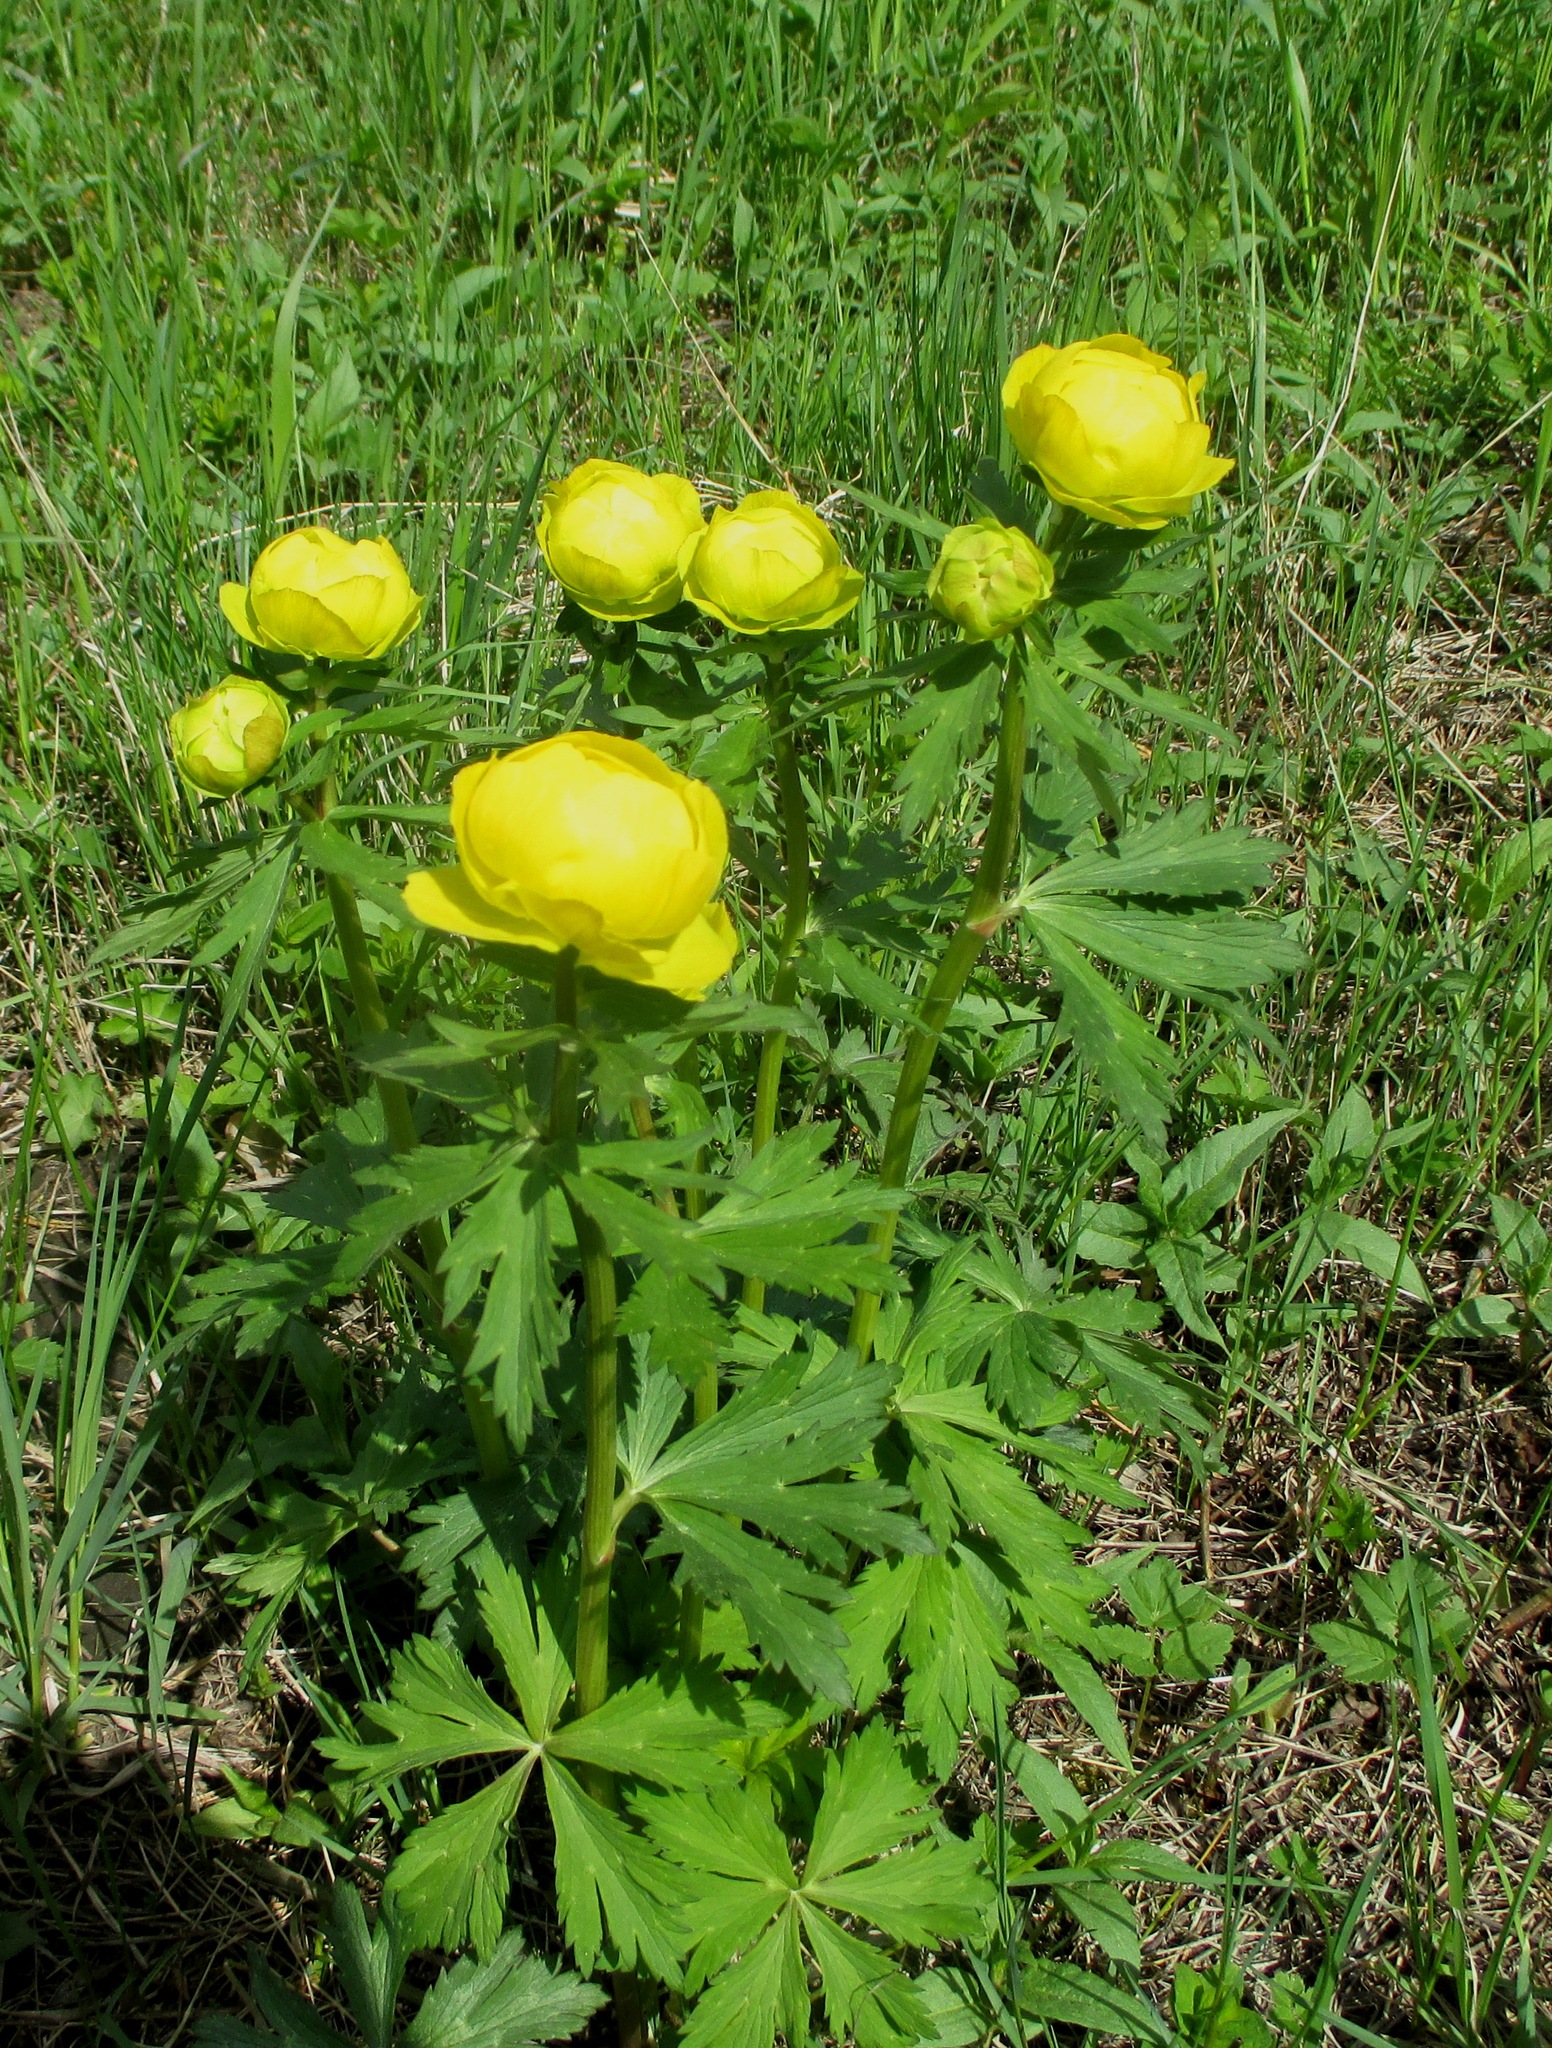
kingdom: Plantae
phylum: Tracheophyta
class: Magnoliopsida
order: Ranunculales
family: Ranunculaceae
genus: Trollius
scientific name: Trollius europaeus
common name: European globeflower
